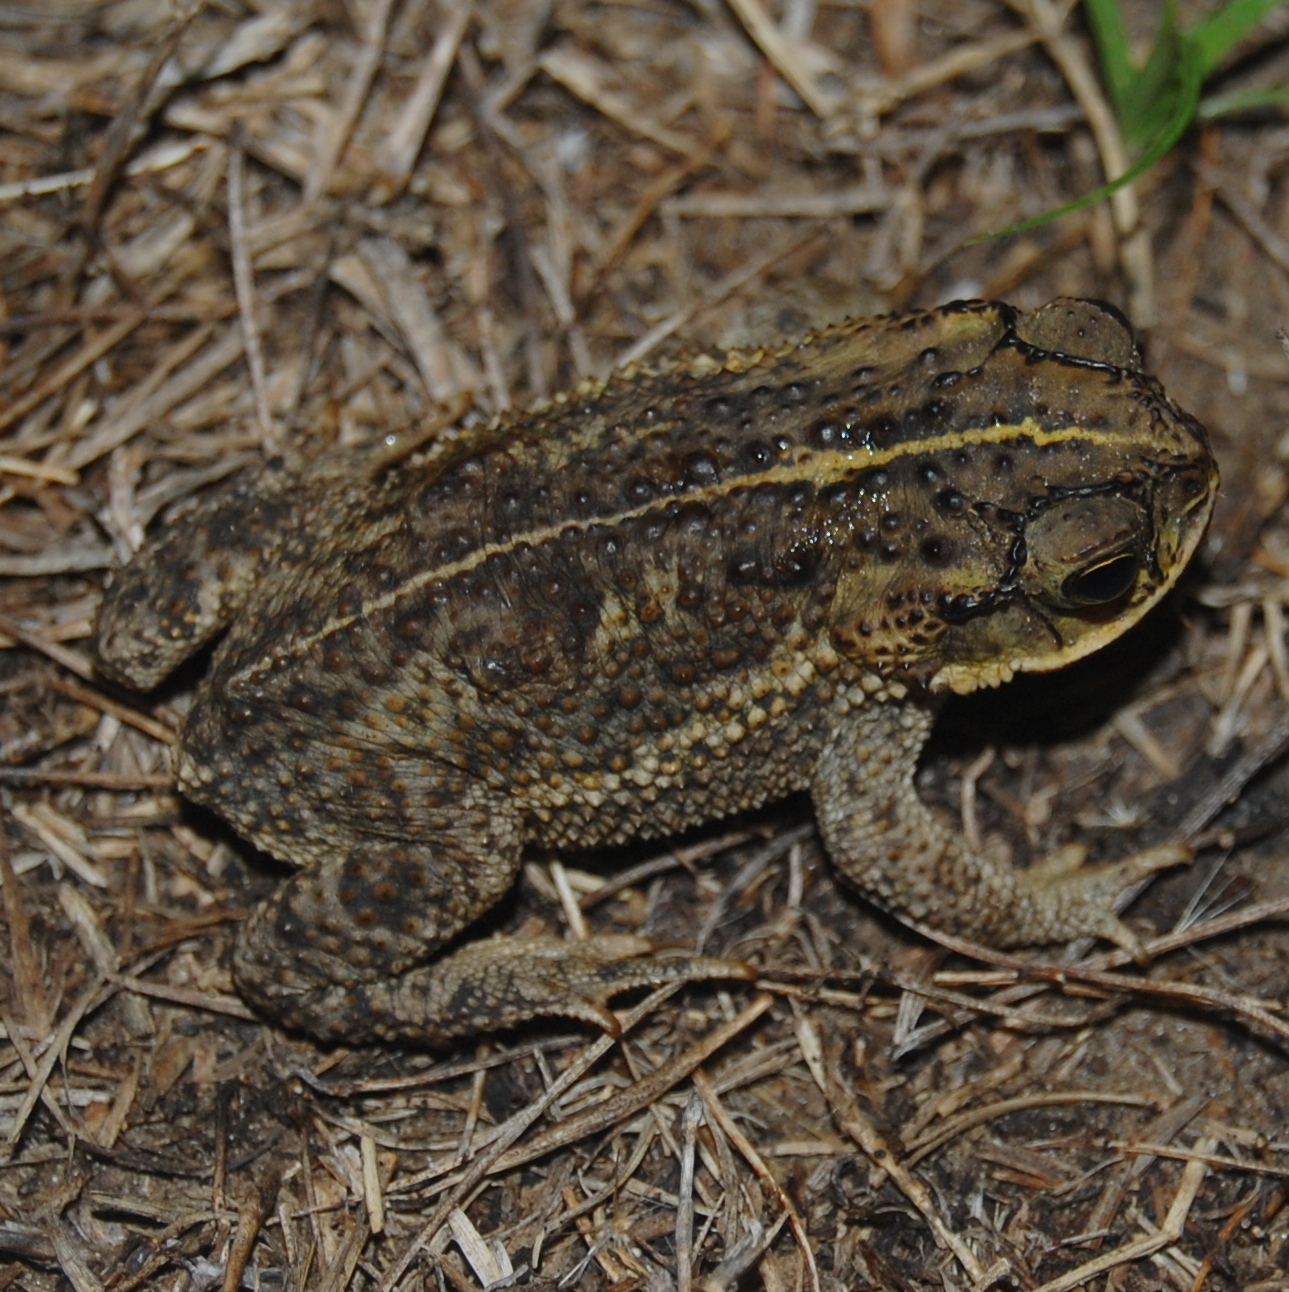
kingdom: Animalia
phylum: Chordata
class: Amphibia
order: Anura
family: Bufonidae
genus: Rhinella
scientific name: Rhinella dorbignyi
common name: D´orbigny’s toad
